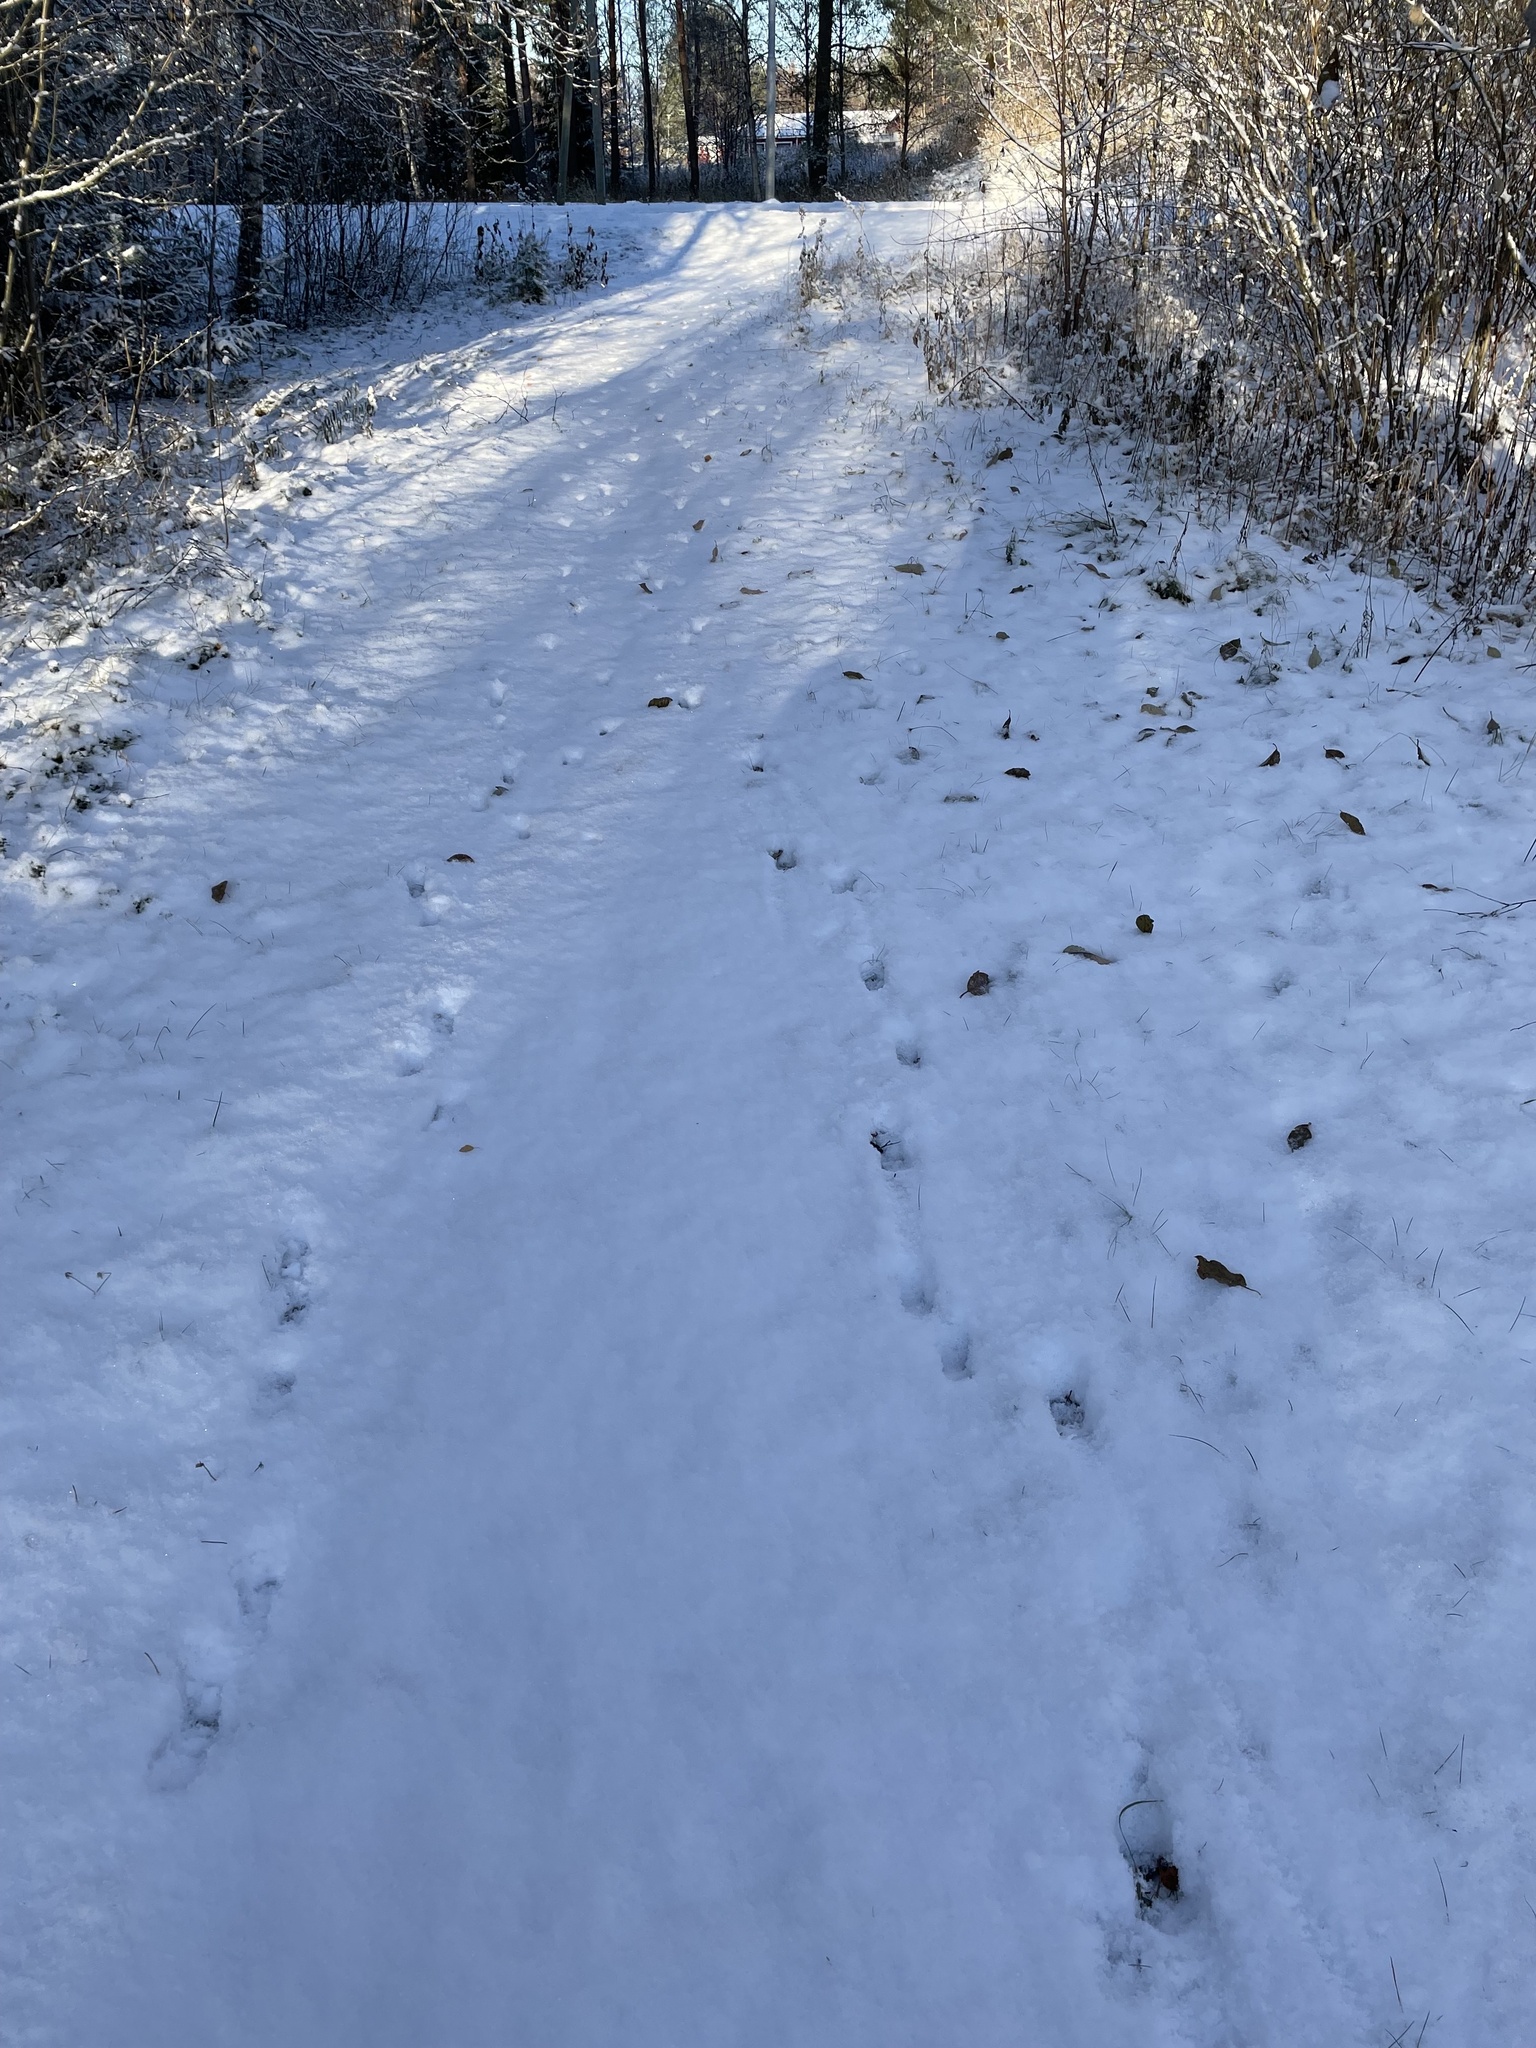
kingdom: Animalia
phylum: Chordata
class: Mammalia
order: Artiodactyla
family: Cervidae
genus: Capreolus
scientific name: Capreolus capreolus
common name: Western roe deer
